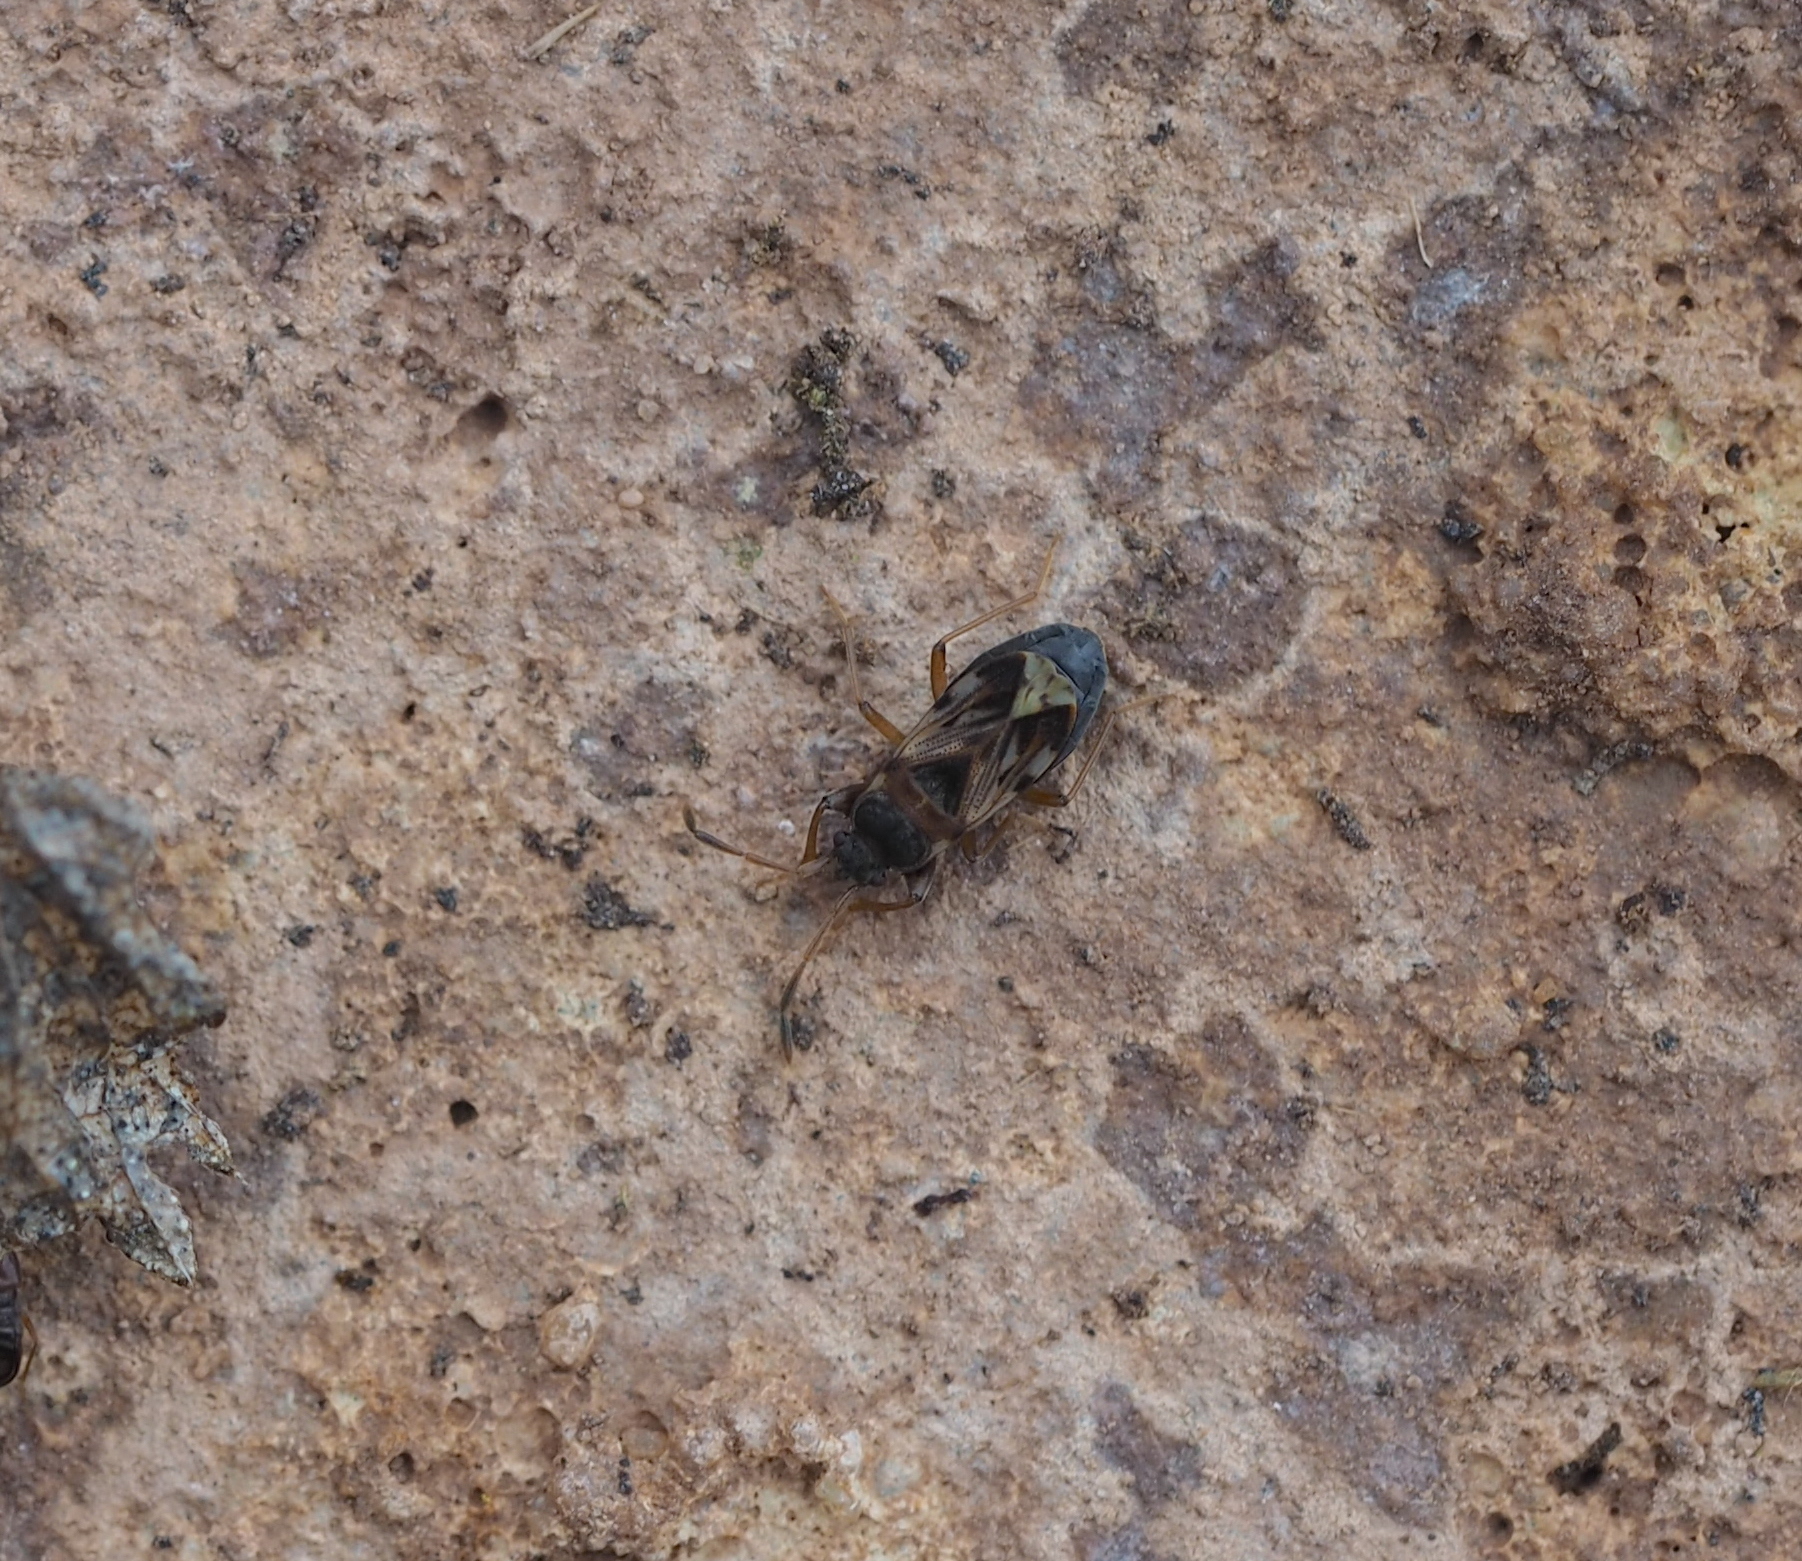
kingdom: Animalia
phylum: Arthropoda
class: Insecta
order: Hemiptera
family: Rhyparochromidae
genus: Scolopostethus
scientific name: Scolopostethus affinis
